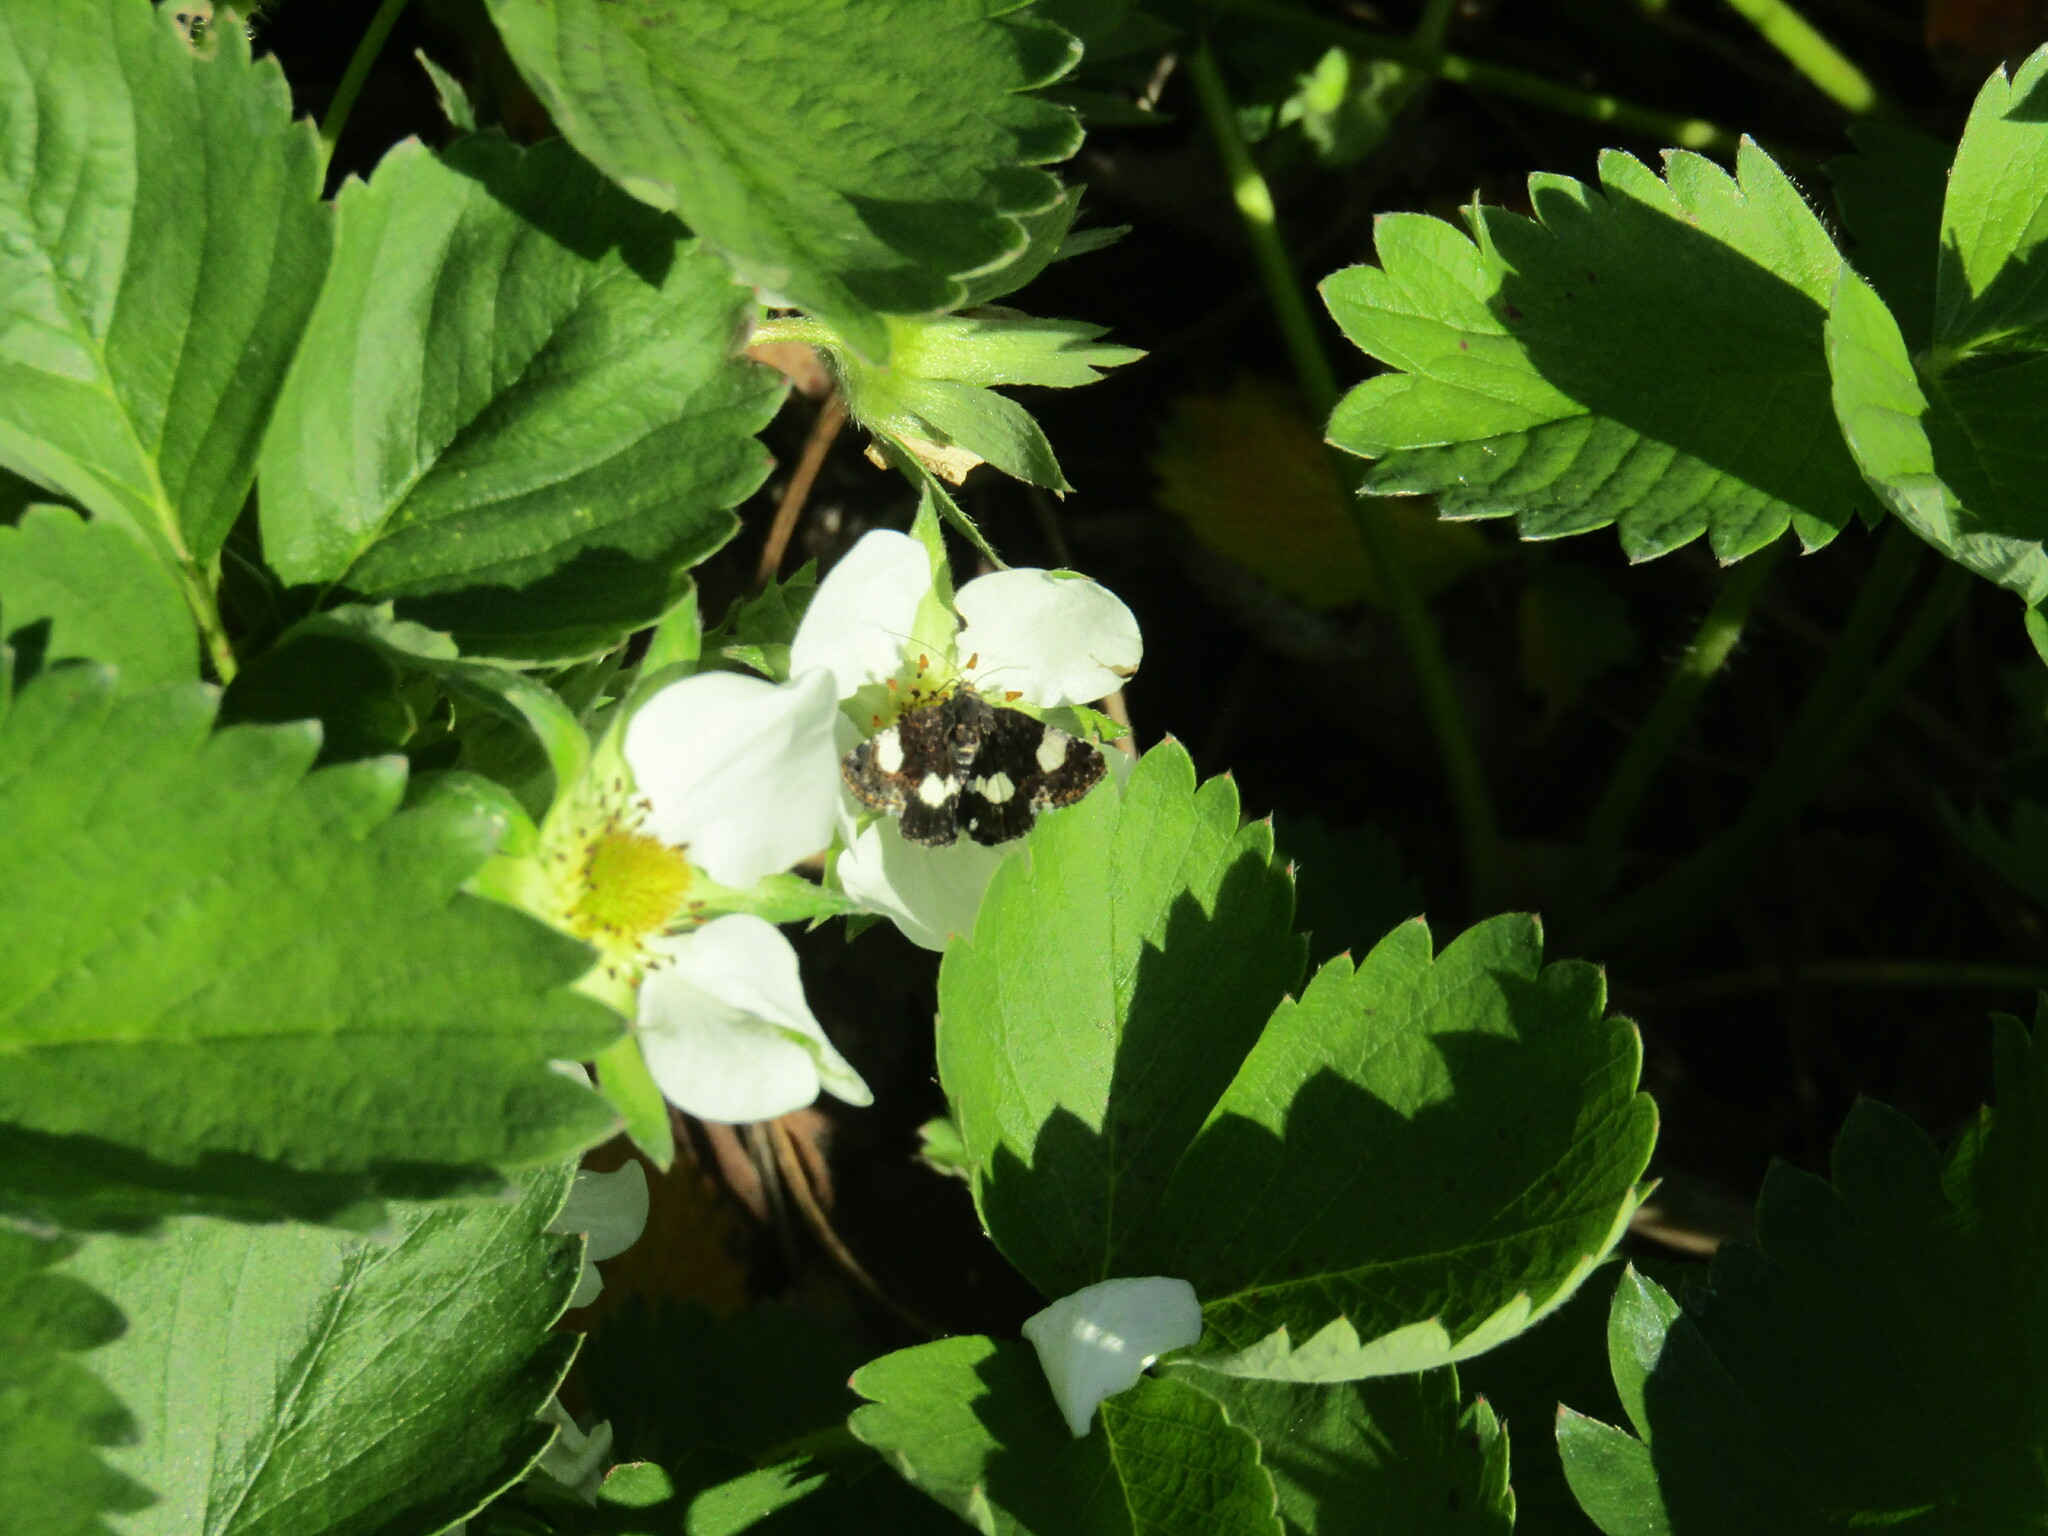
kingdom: Animalia
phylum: Arthropoda
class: Insecta
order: Lepidoptera
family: Erebidae
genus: Tyta
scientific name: Tyta luctuosa
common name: Four-spotted
